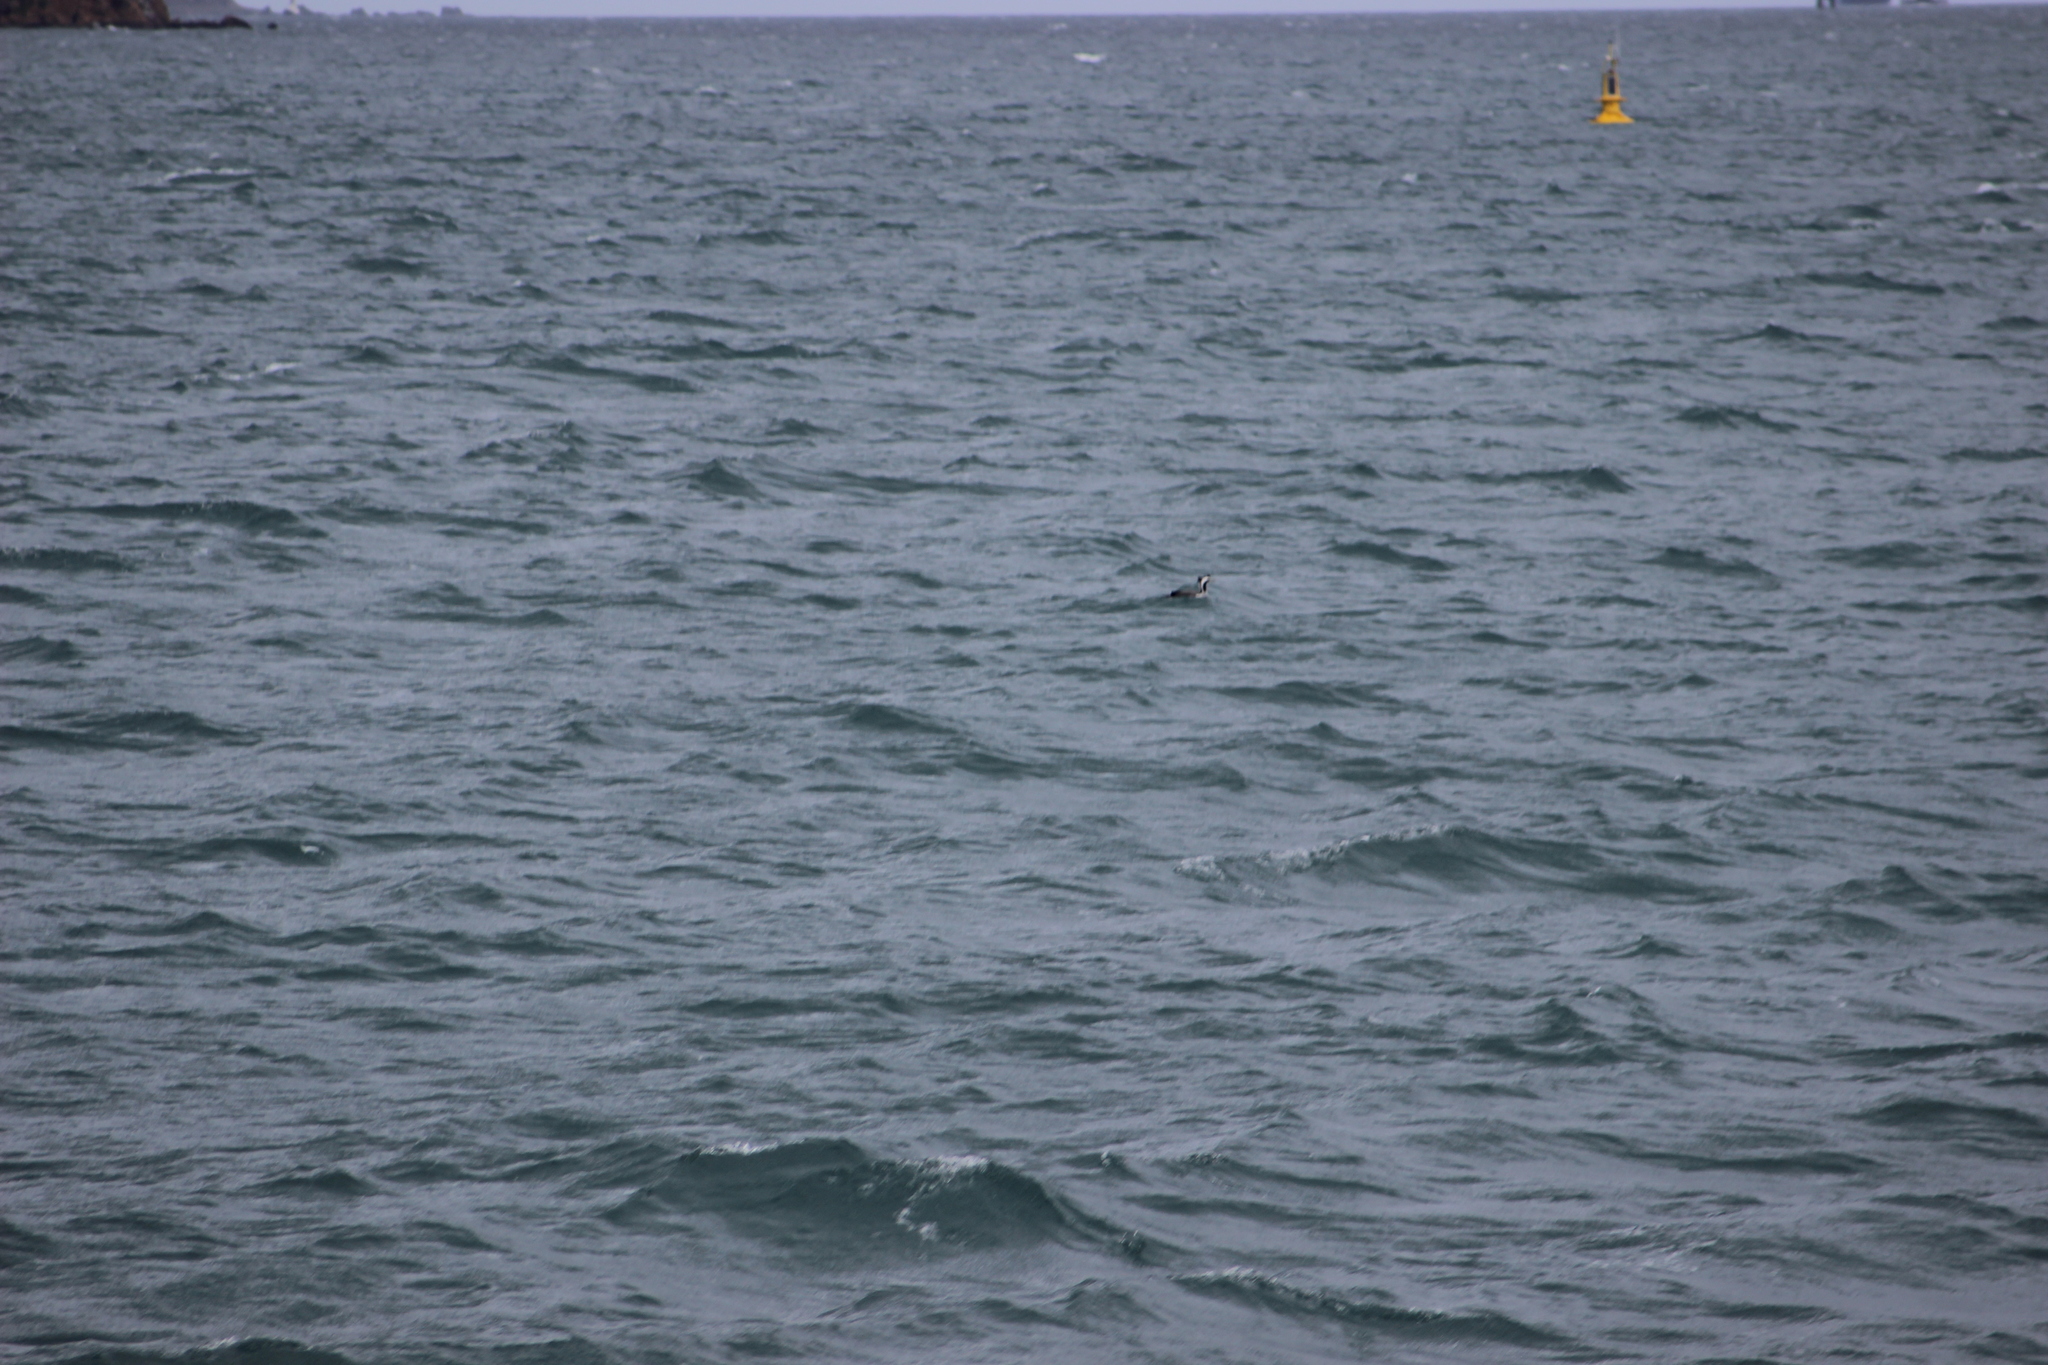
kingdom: Animalia
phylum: Chordata
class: Aves
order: Suliformes
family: Phalacrocoracidae
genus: Phalacrocorax
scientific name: Phalacrocorax punctatus
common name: Spotted shag
